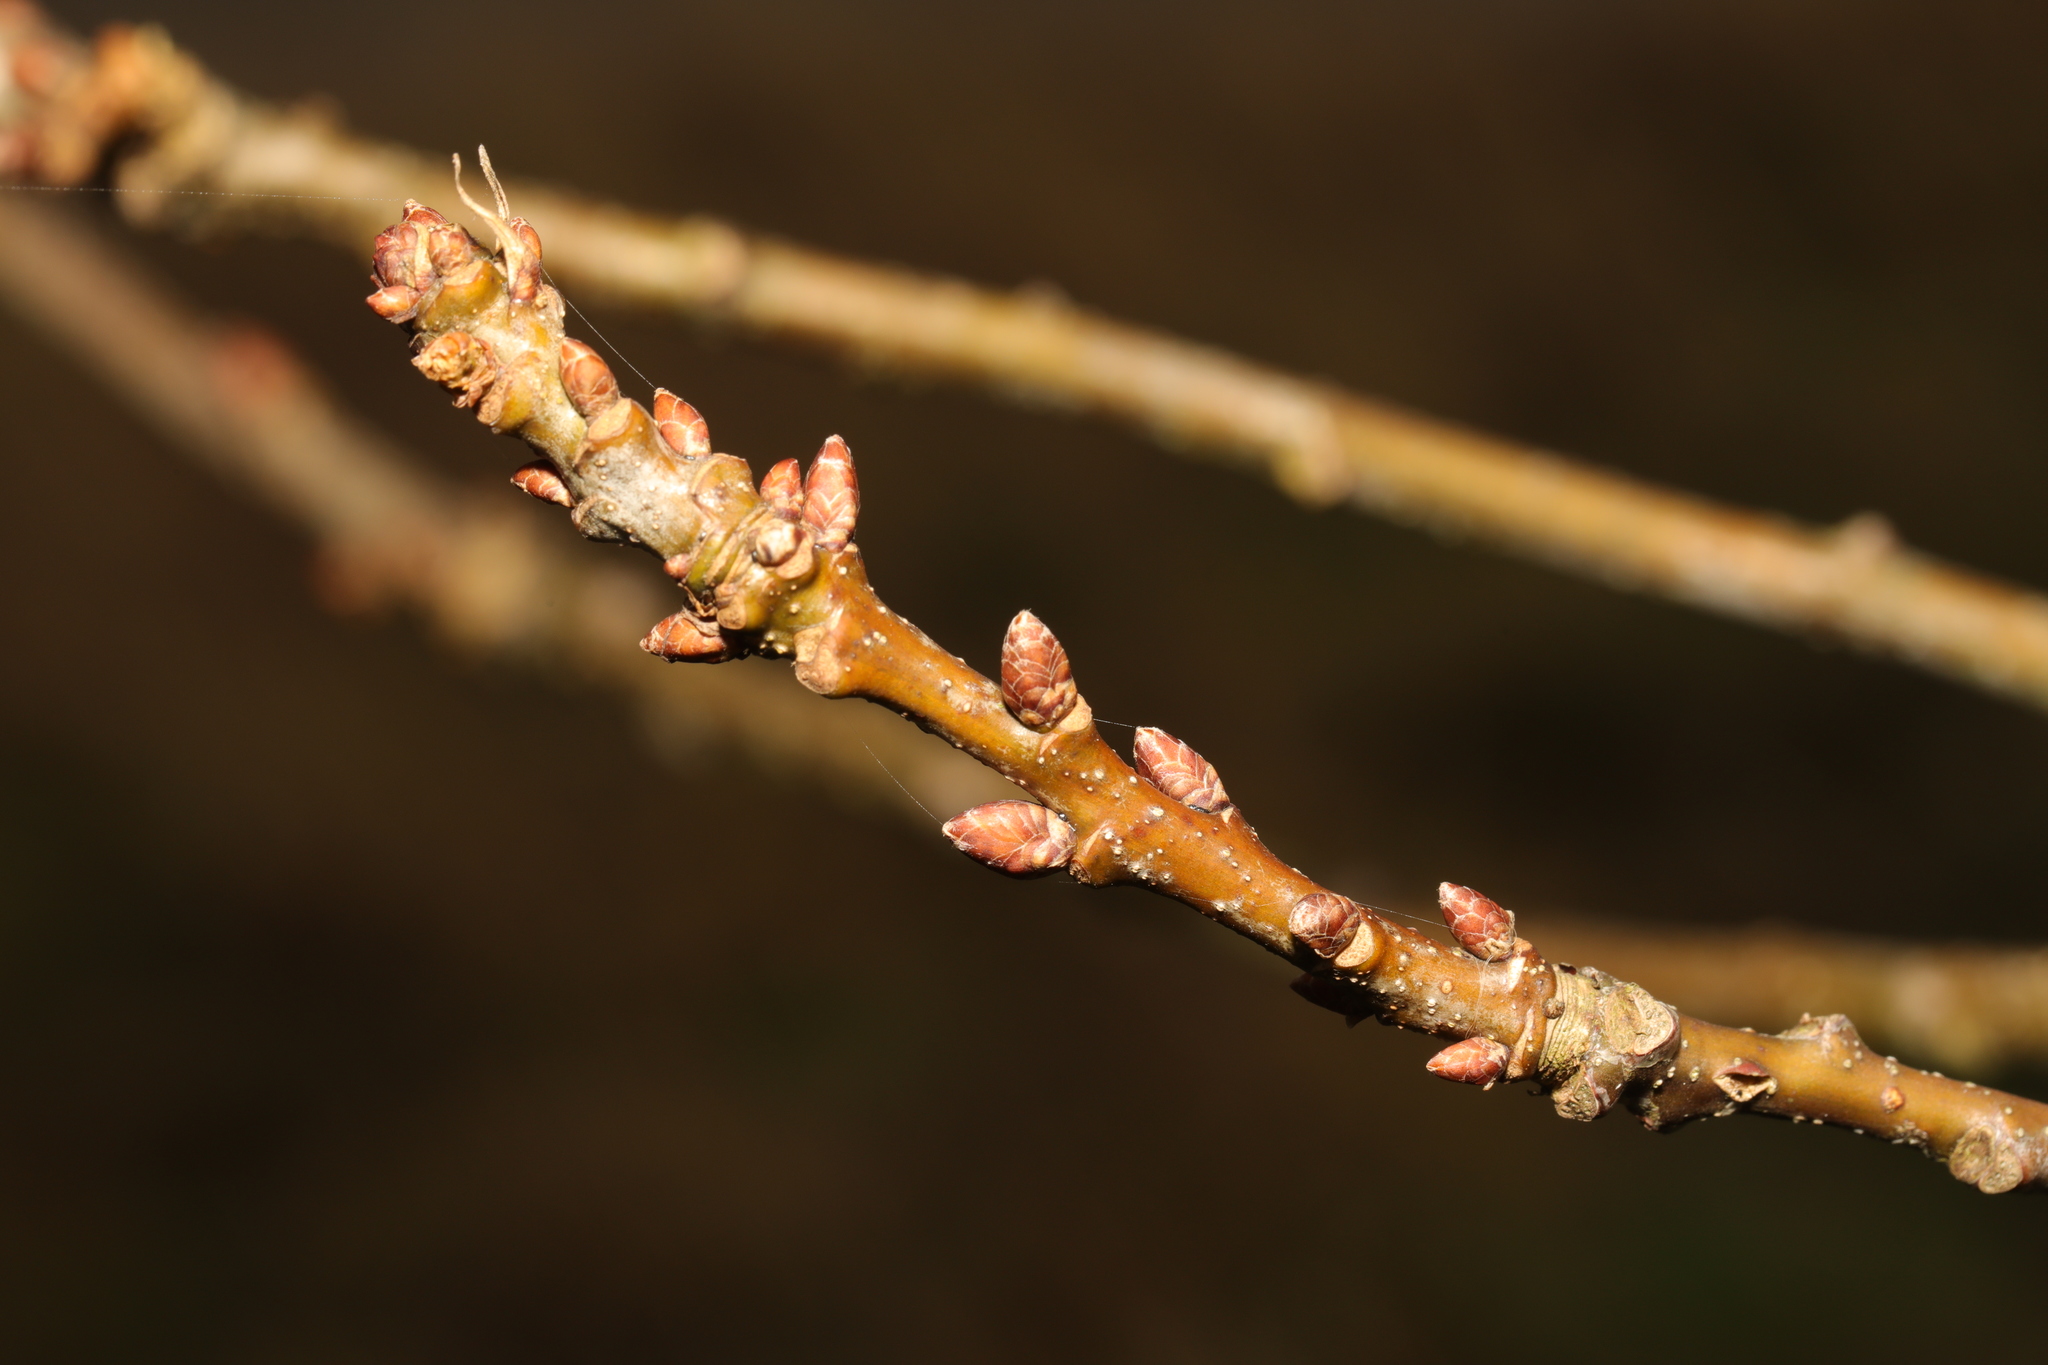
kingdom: Plantae
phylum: Tracheophyta
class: Magnoliopsida
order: Fagales
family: Fagaceae
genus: Quercus
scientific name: Quercus robur
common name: Pedunculate oak
